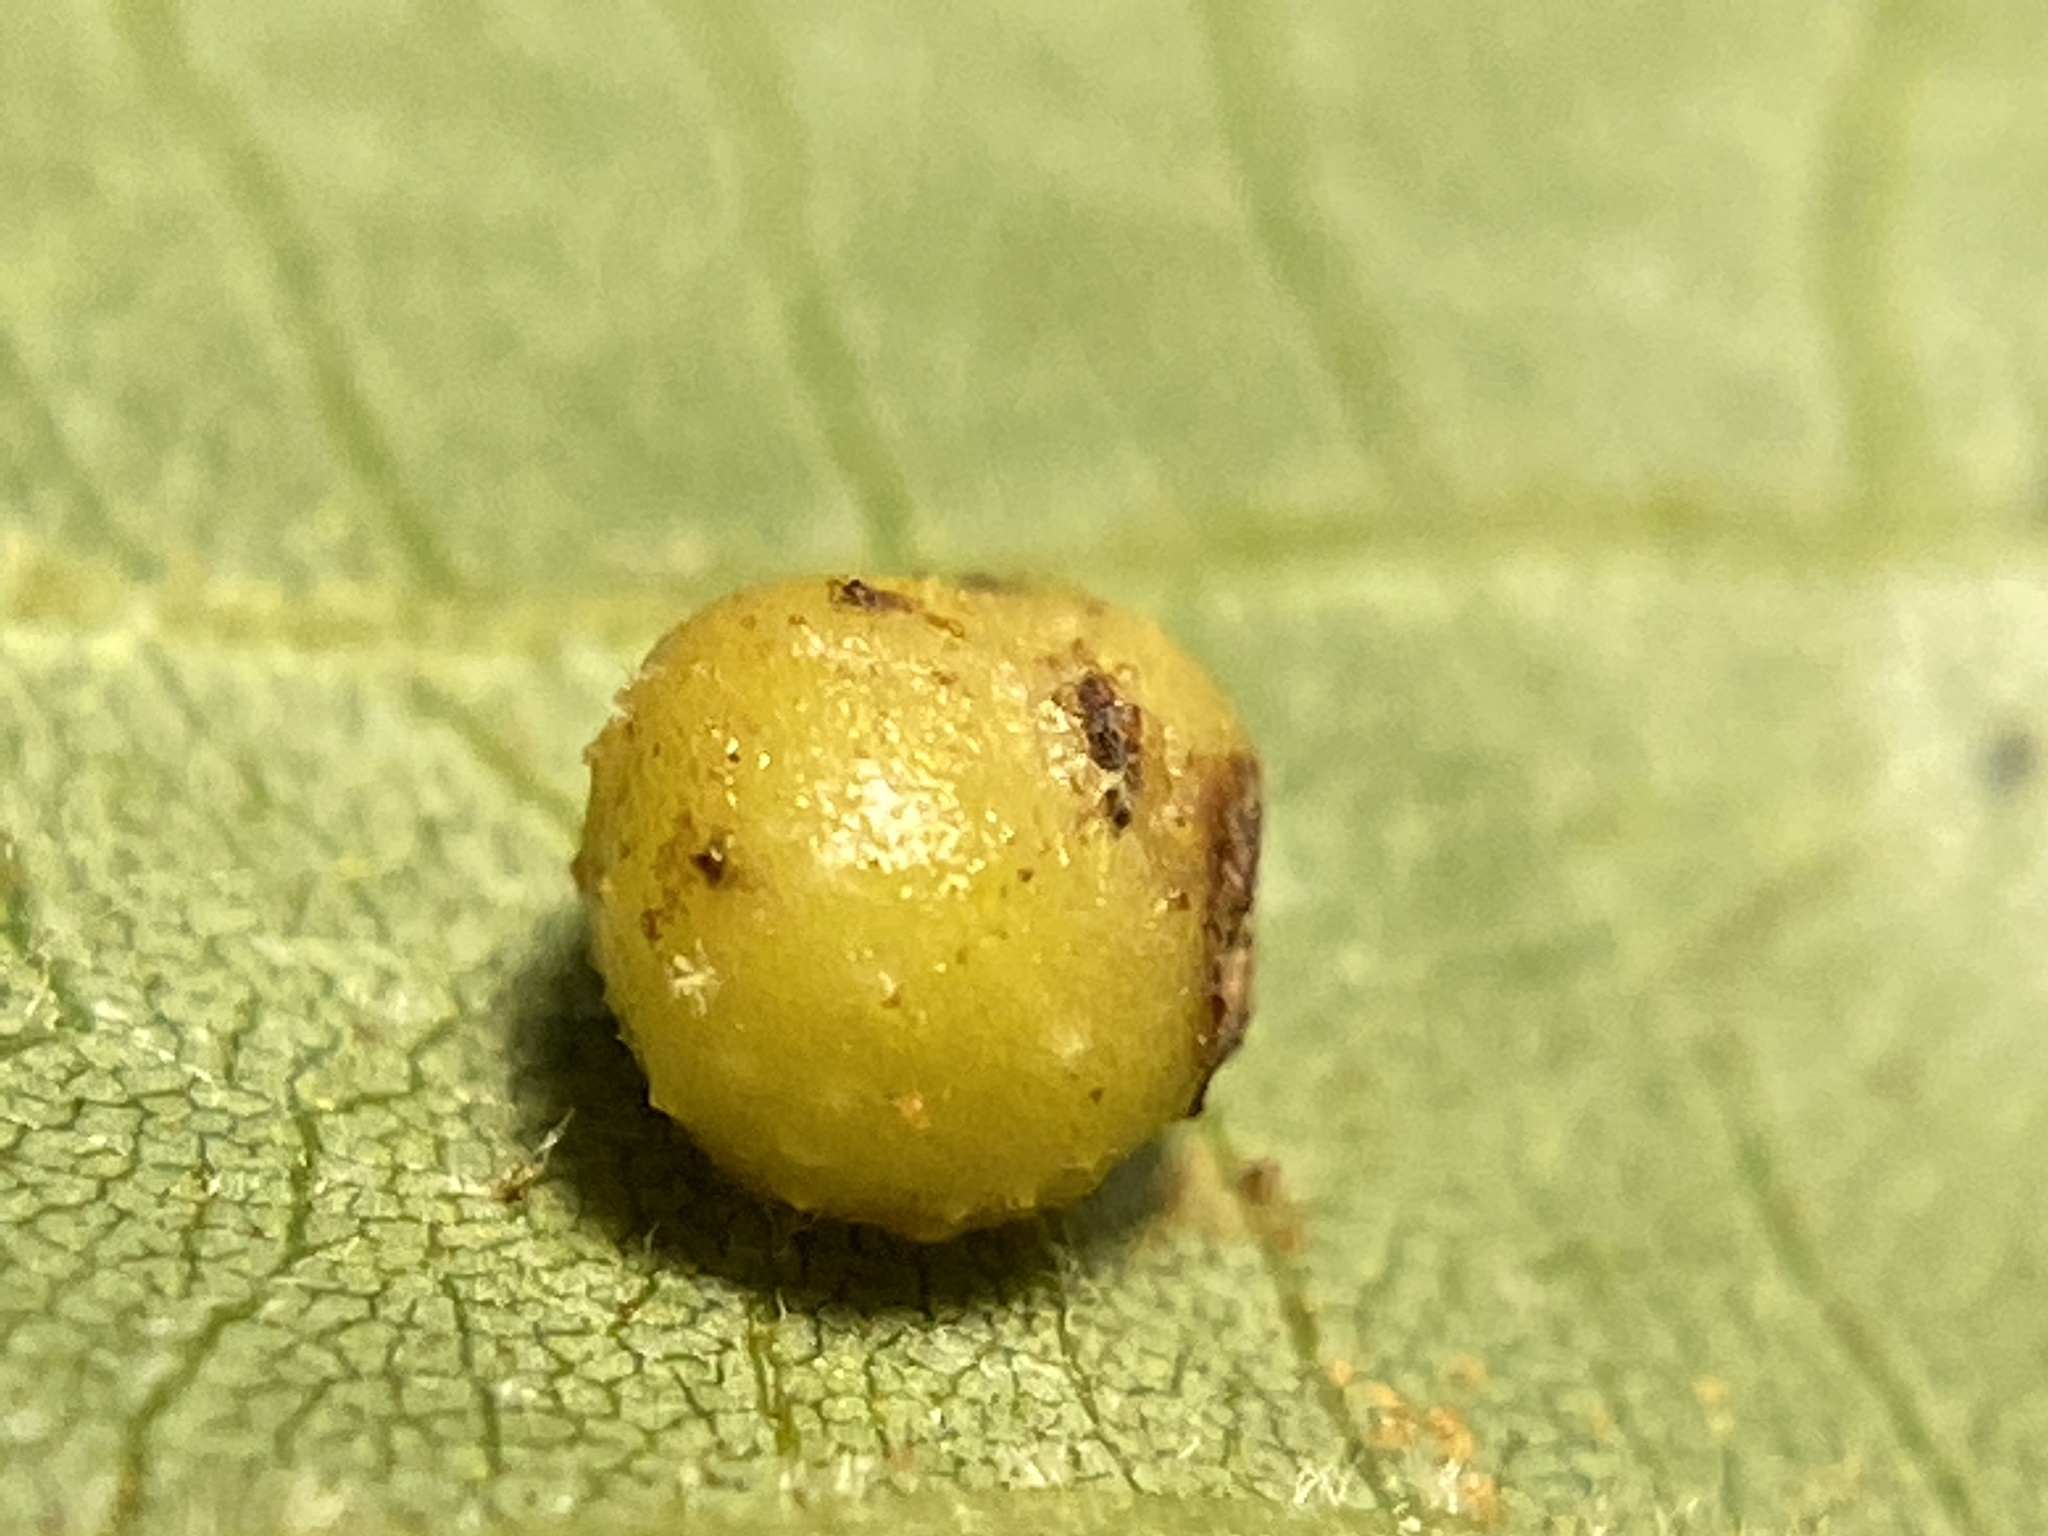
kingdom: Animalia
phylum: Arthropoda
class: Insecta
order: Diptera
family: Cecidomyiidae
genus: Caryomyia
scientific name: Caryomyia tuberculata
